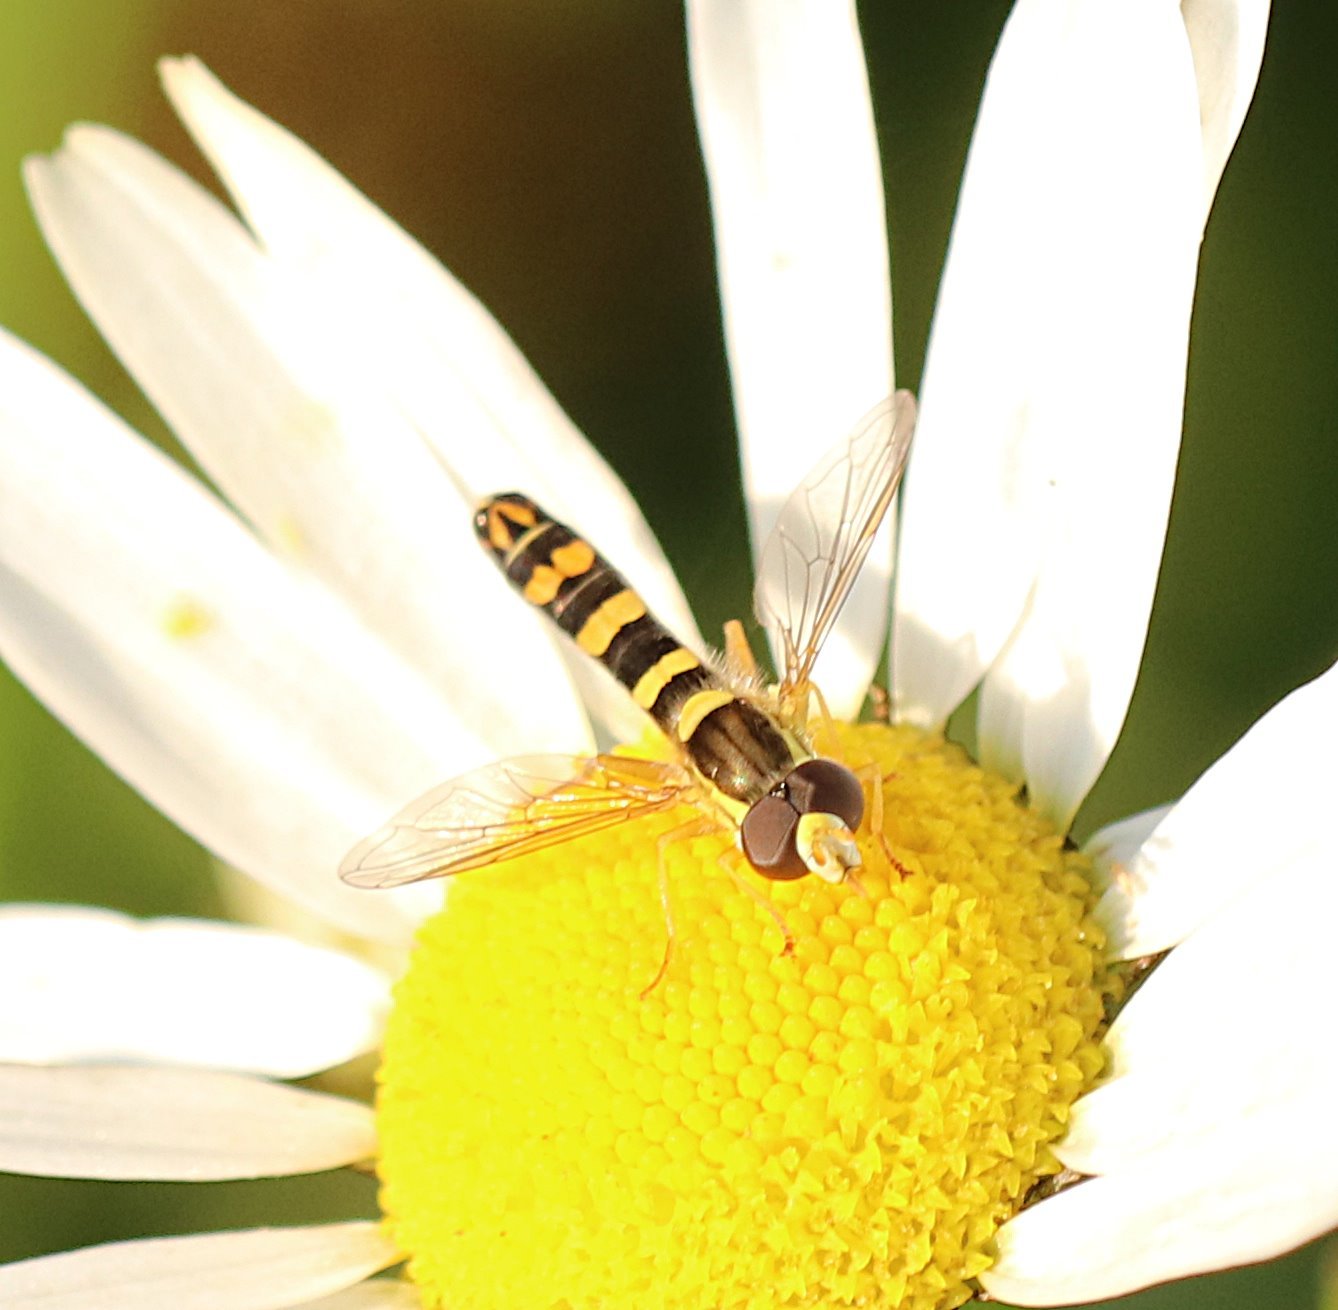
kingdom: Animalia
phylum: Arthropoda
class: Insecta
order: Diptera
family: Syrphidae
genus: Sphaerophoria
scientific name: Sphaerophoria scripta
